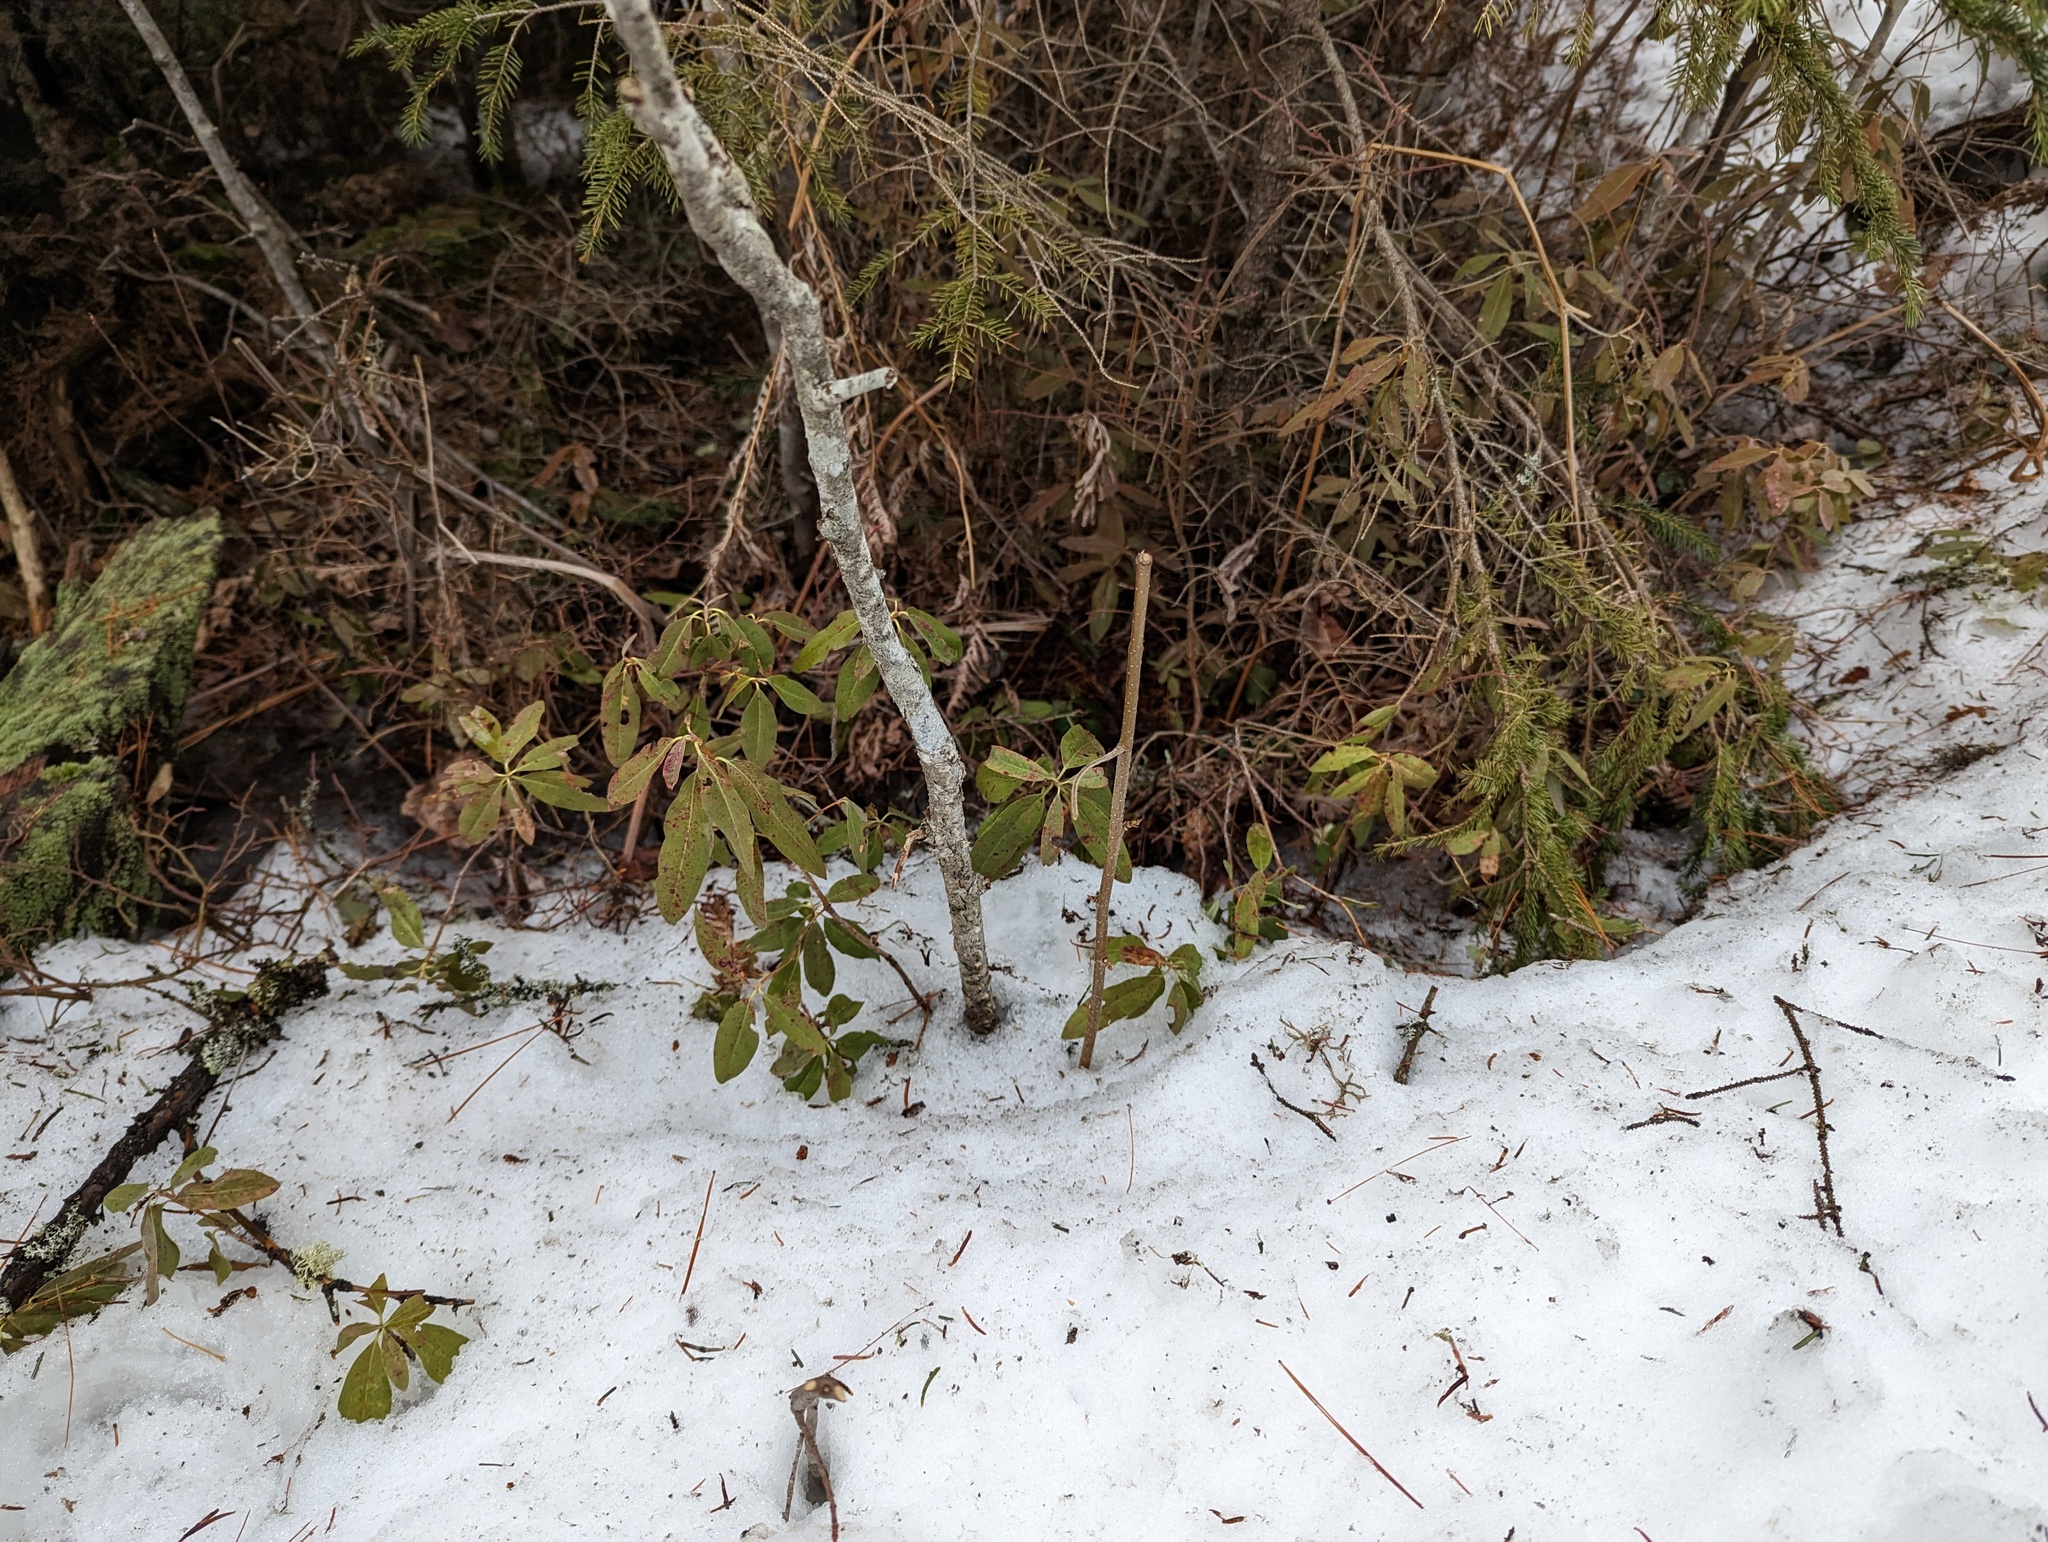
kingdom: Plantae
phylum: Tracheophyta
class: Magnoliopsida
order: Ericales
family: Ericaceae
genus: Kalmia
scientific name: Kalmia angustifolia
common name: Sheep-laurel
